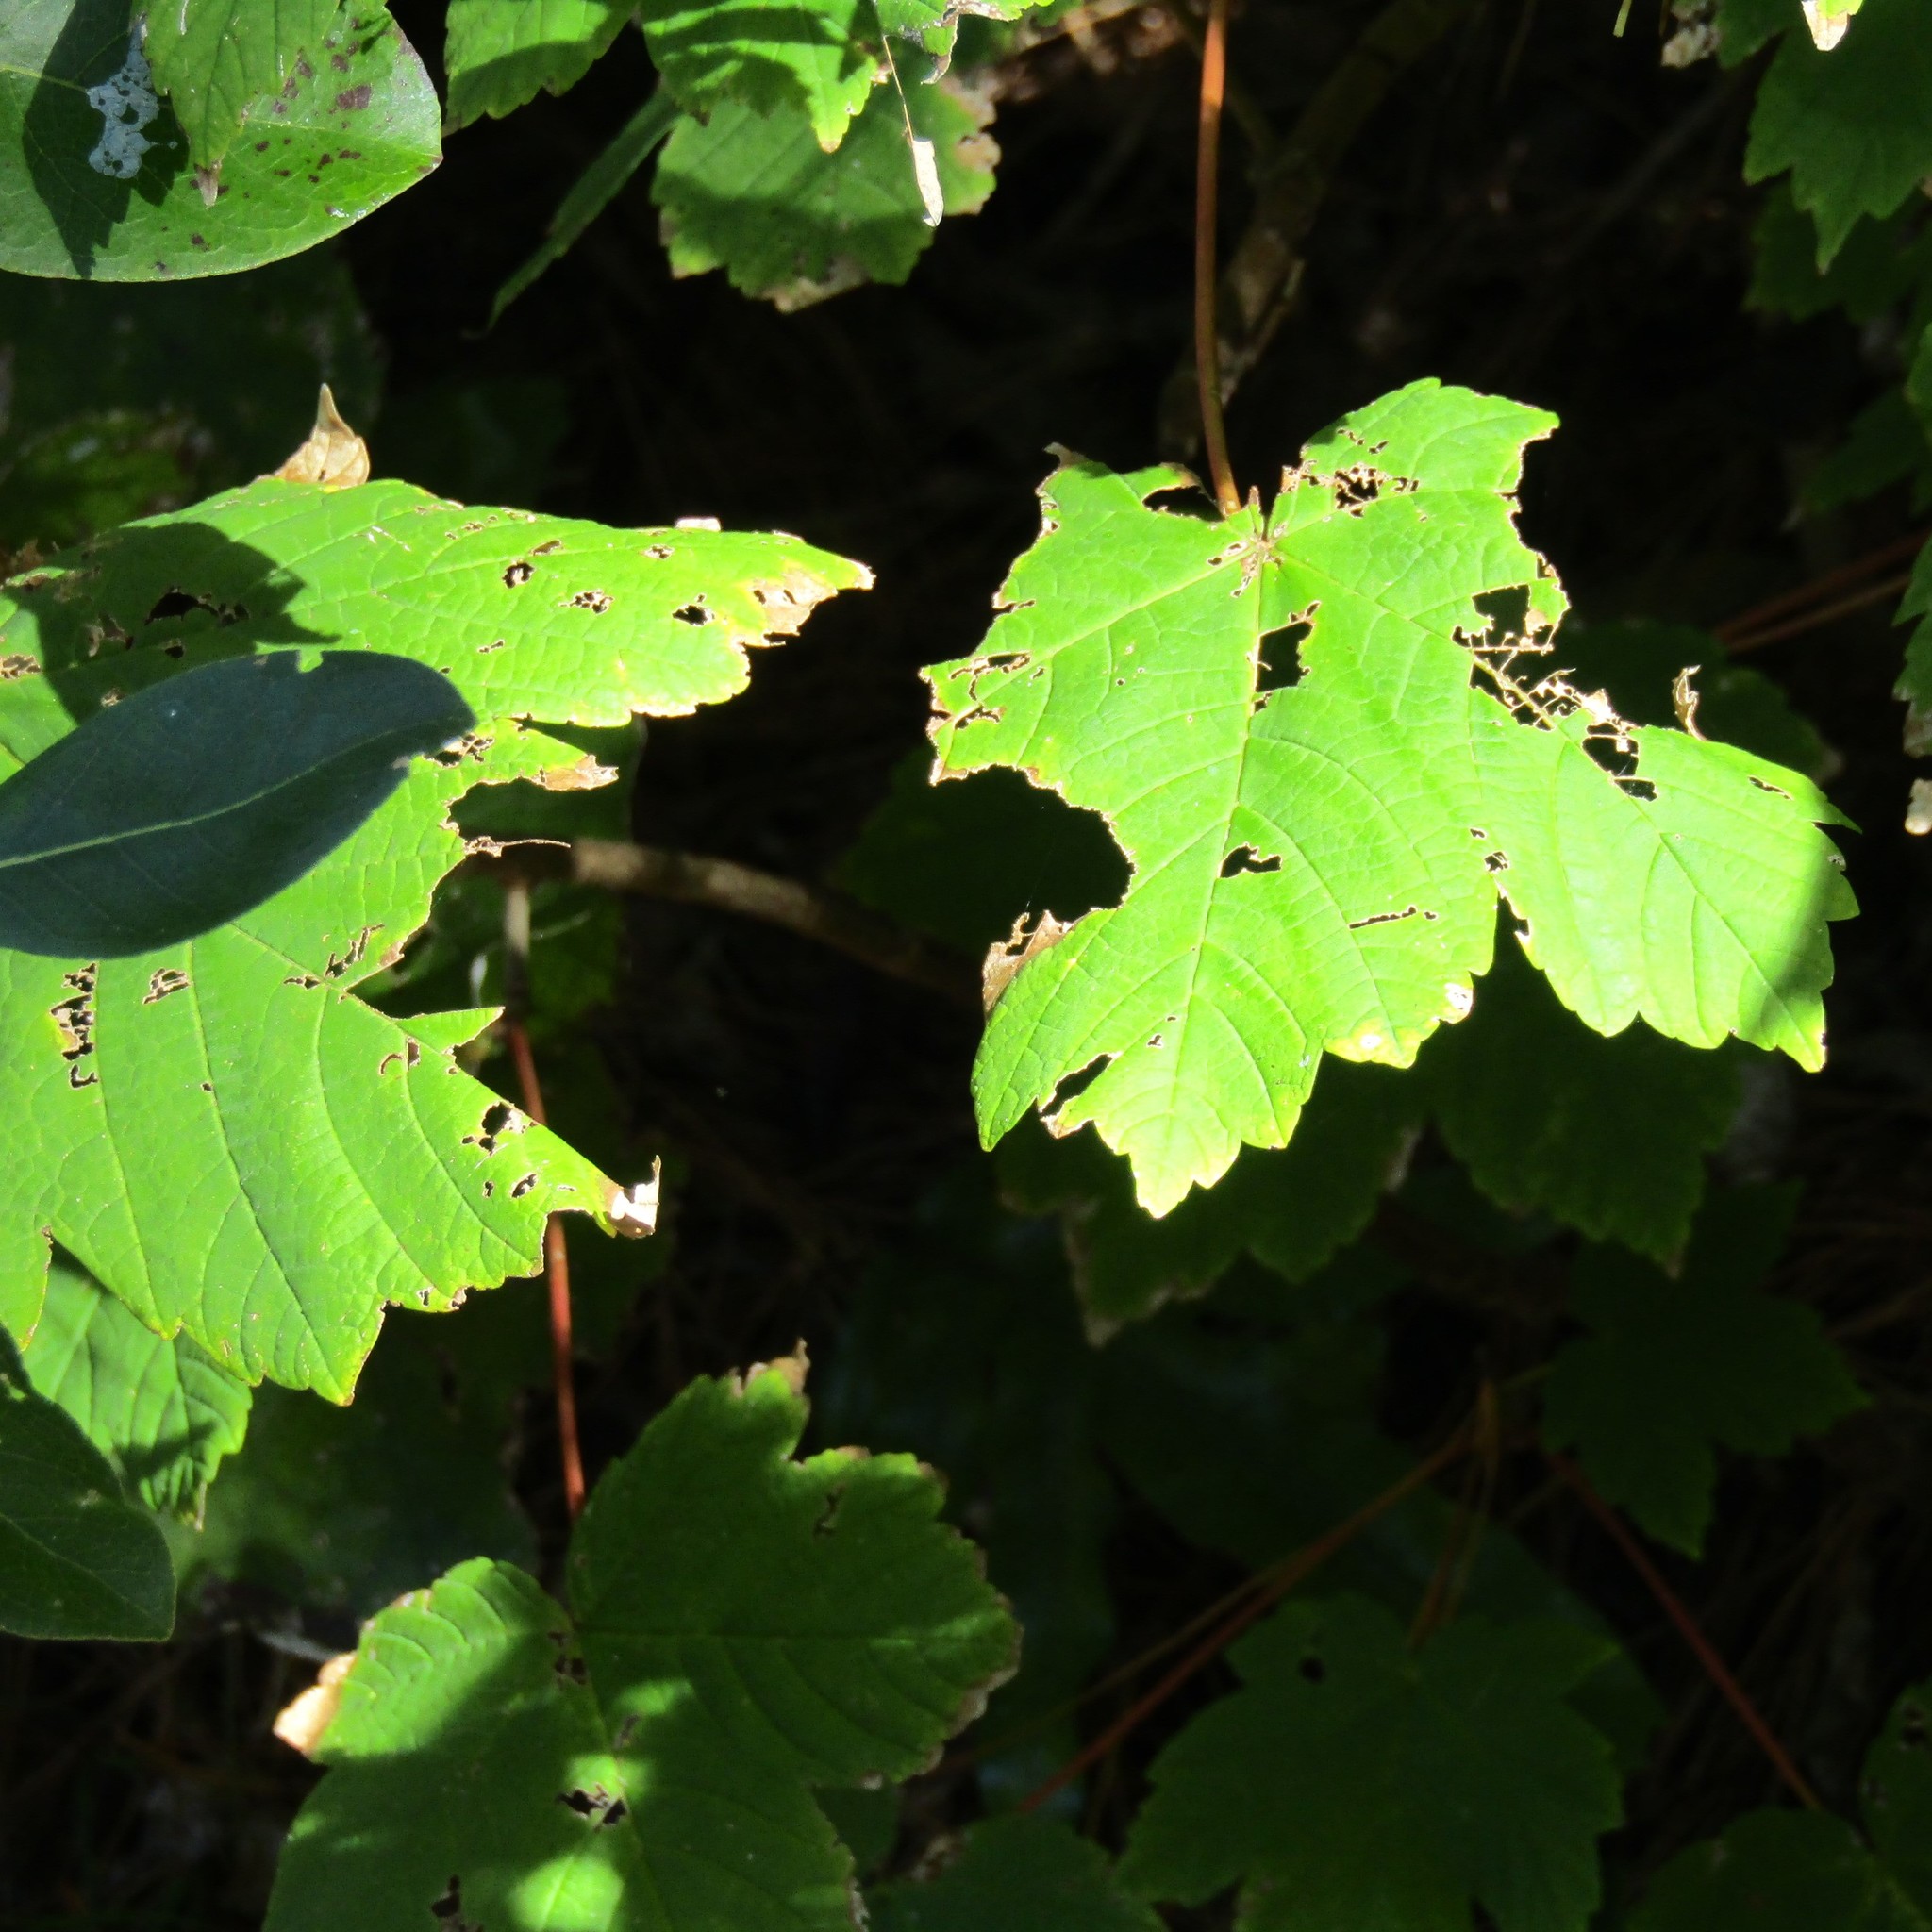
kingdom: Plantae
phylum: Tracheophyta
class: Magnoliopsida
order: Sapindales
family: Sapindaceae
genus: Acer
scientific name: Acer pseudoplatanus
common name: Sycamore
